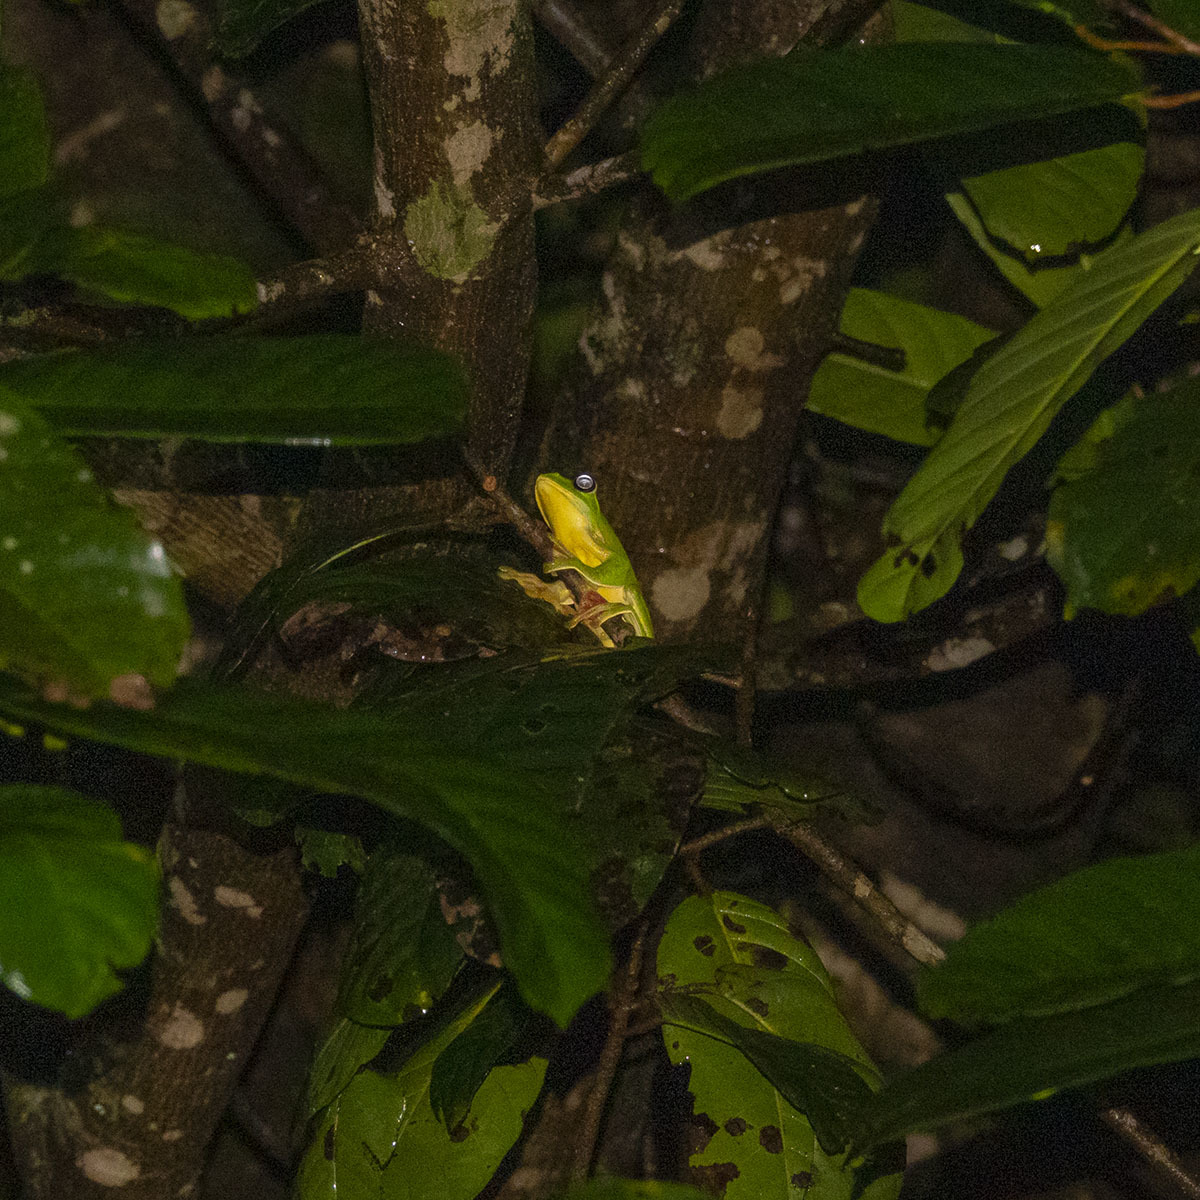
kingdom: Animalia
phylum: Chordata
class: Amphibia
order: Anura
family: Rhacophoridae
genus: Rhacophorus
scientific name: Rhacophorus malabaricus
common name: Malabar gliding frog
